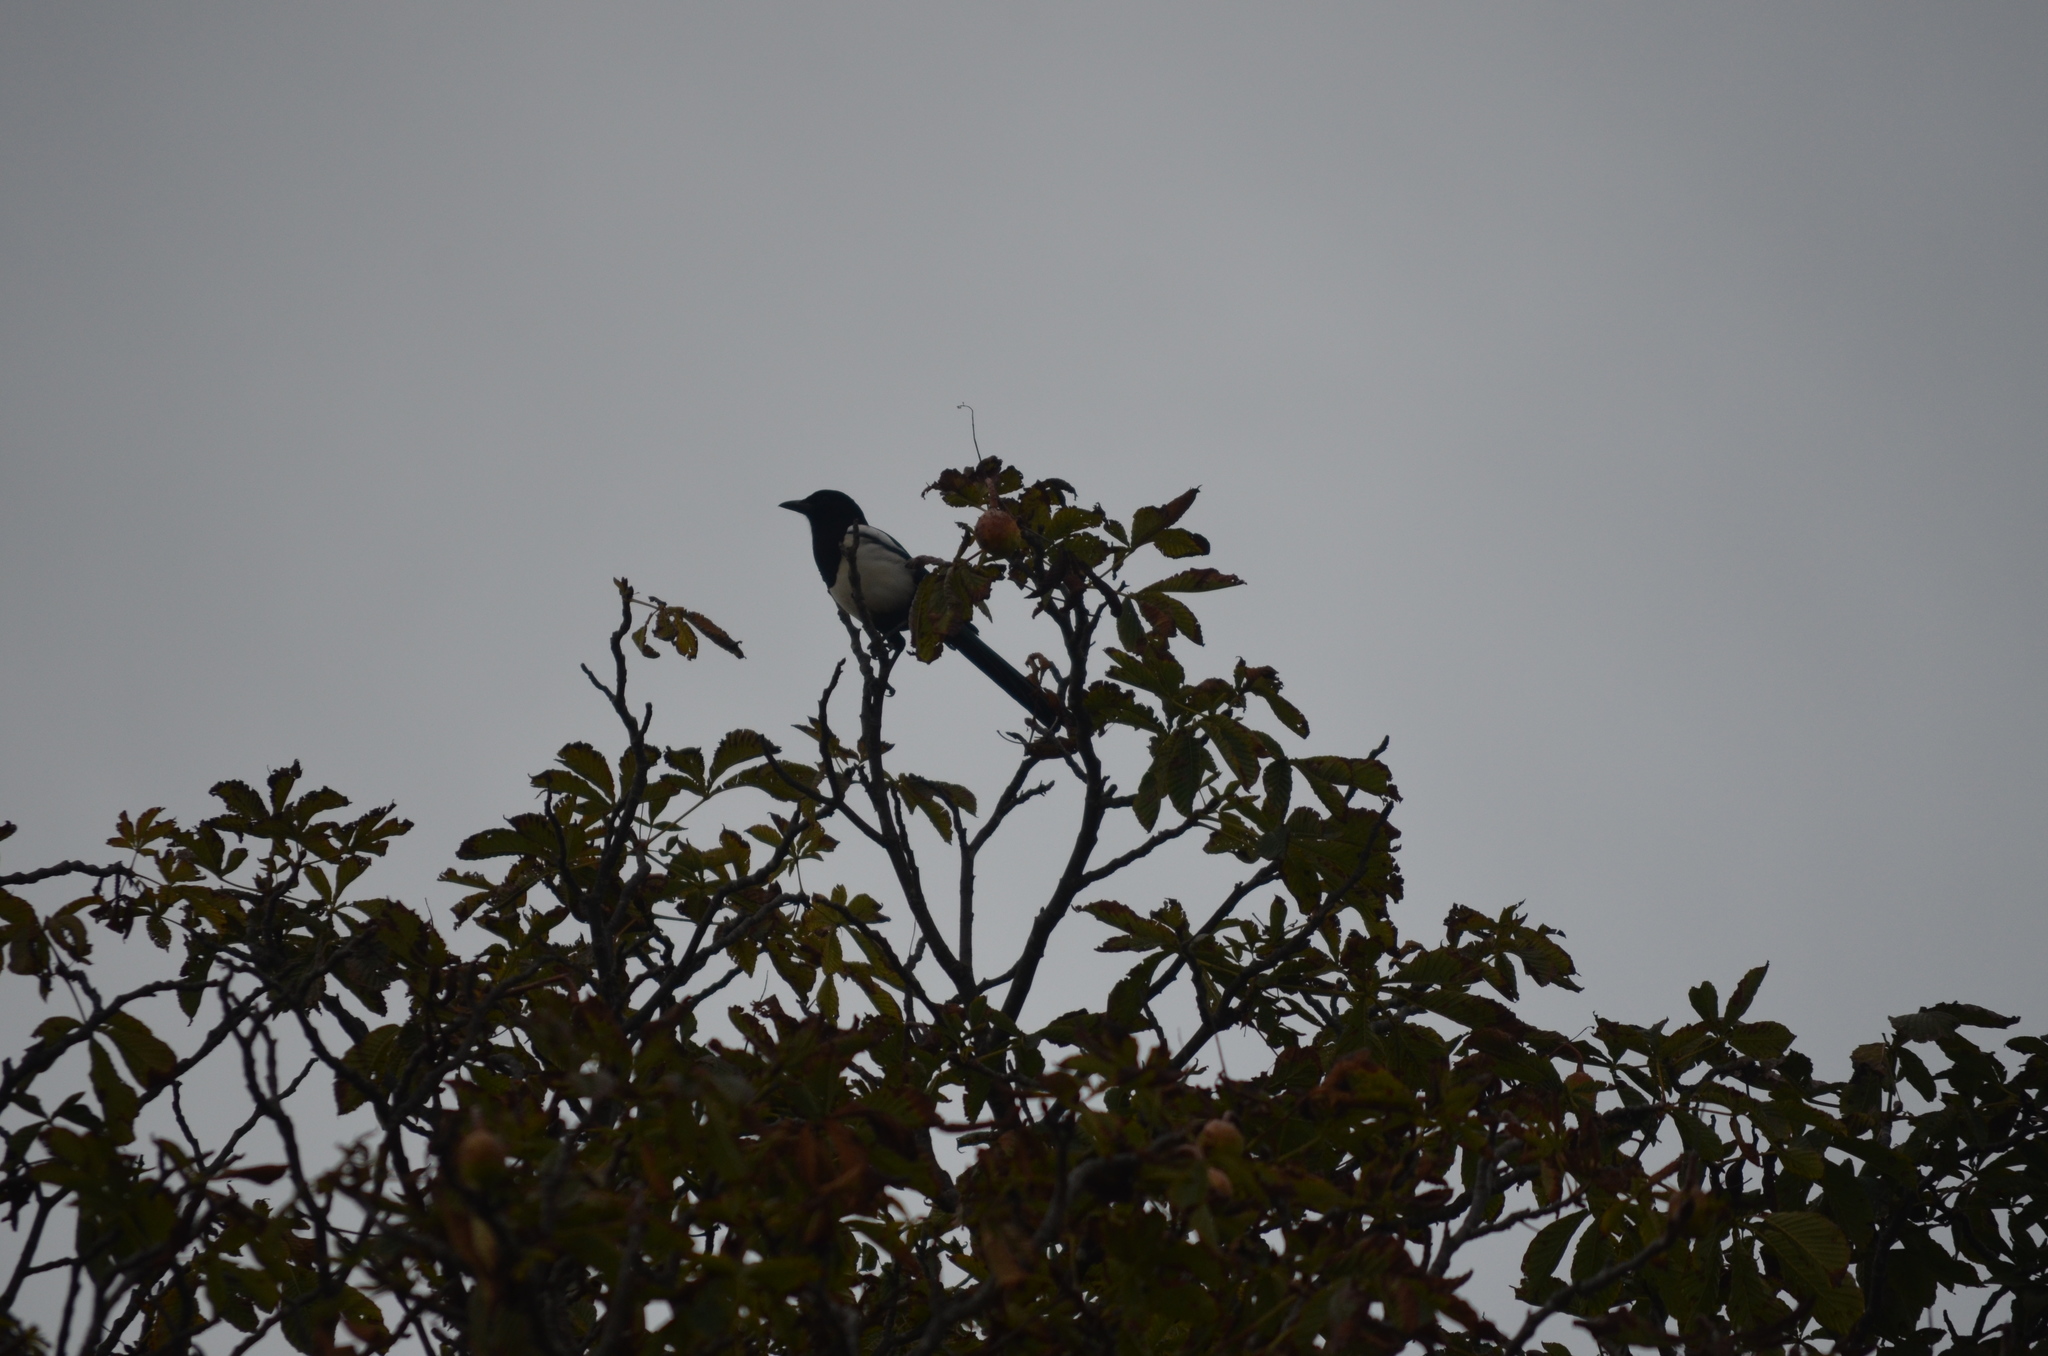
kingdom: Animalia
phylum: Chordata
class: Aves
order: Passeriformes
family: Corvidae
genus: Pica
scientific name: Pica pica
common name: Eurasian magpie
